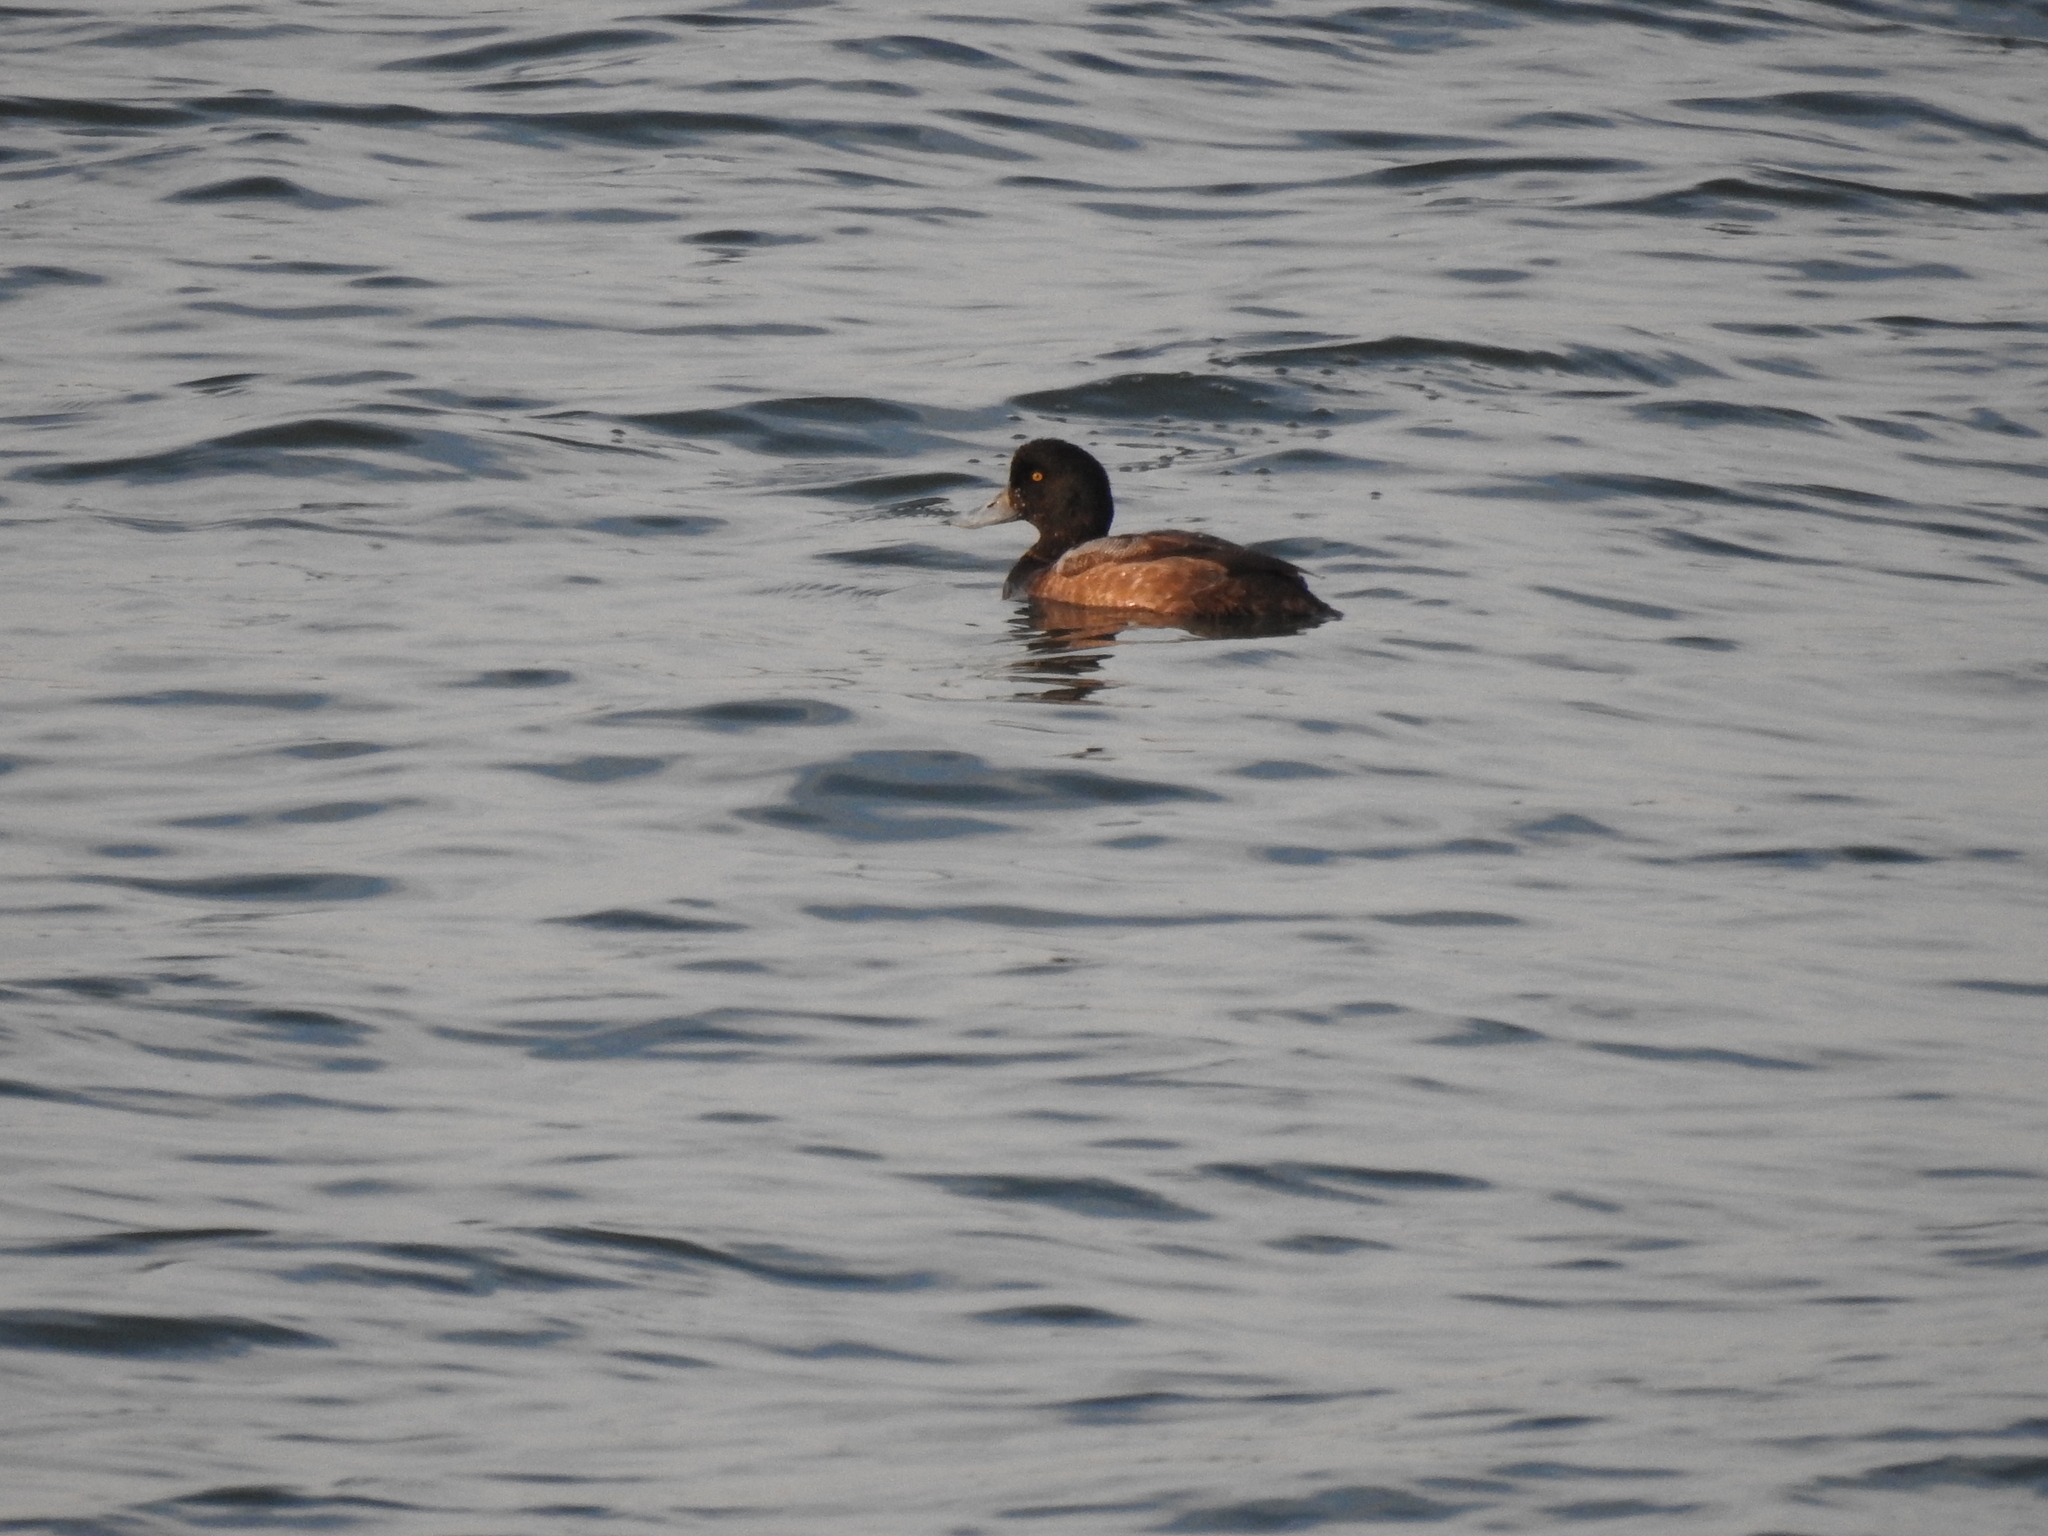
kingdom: Animalia
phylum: Chordata
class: Aves
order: Anseriformes
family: Anatidae
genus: Aythya
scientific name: Aythya marila
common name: Greater scaup
